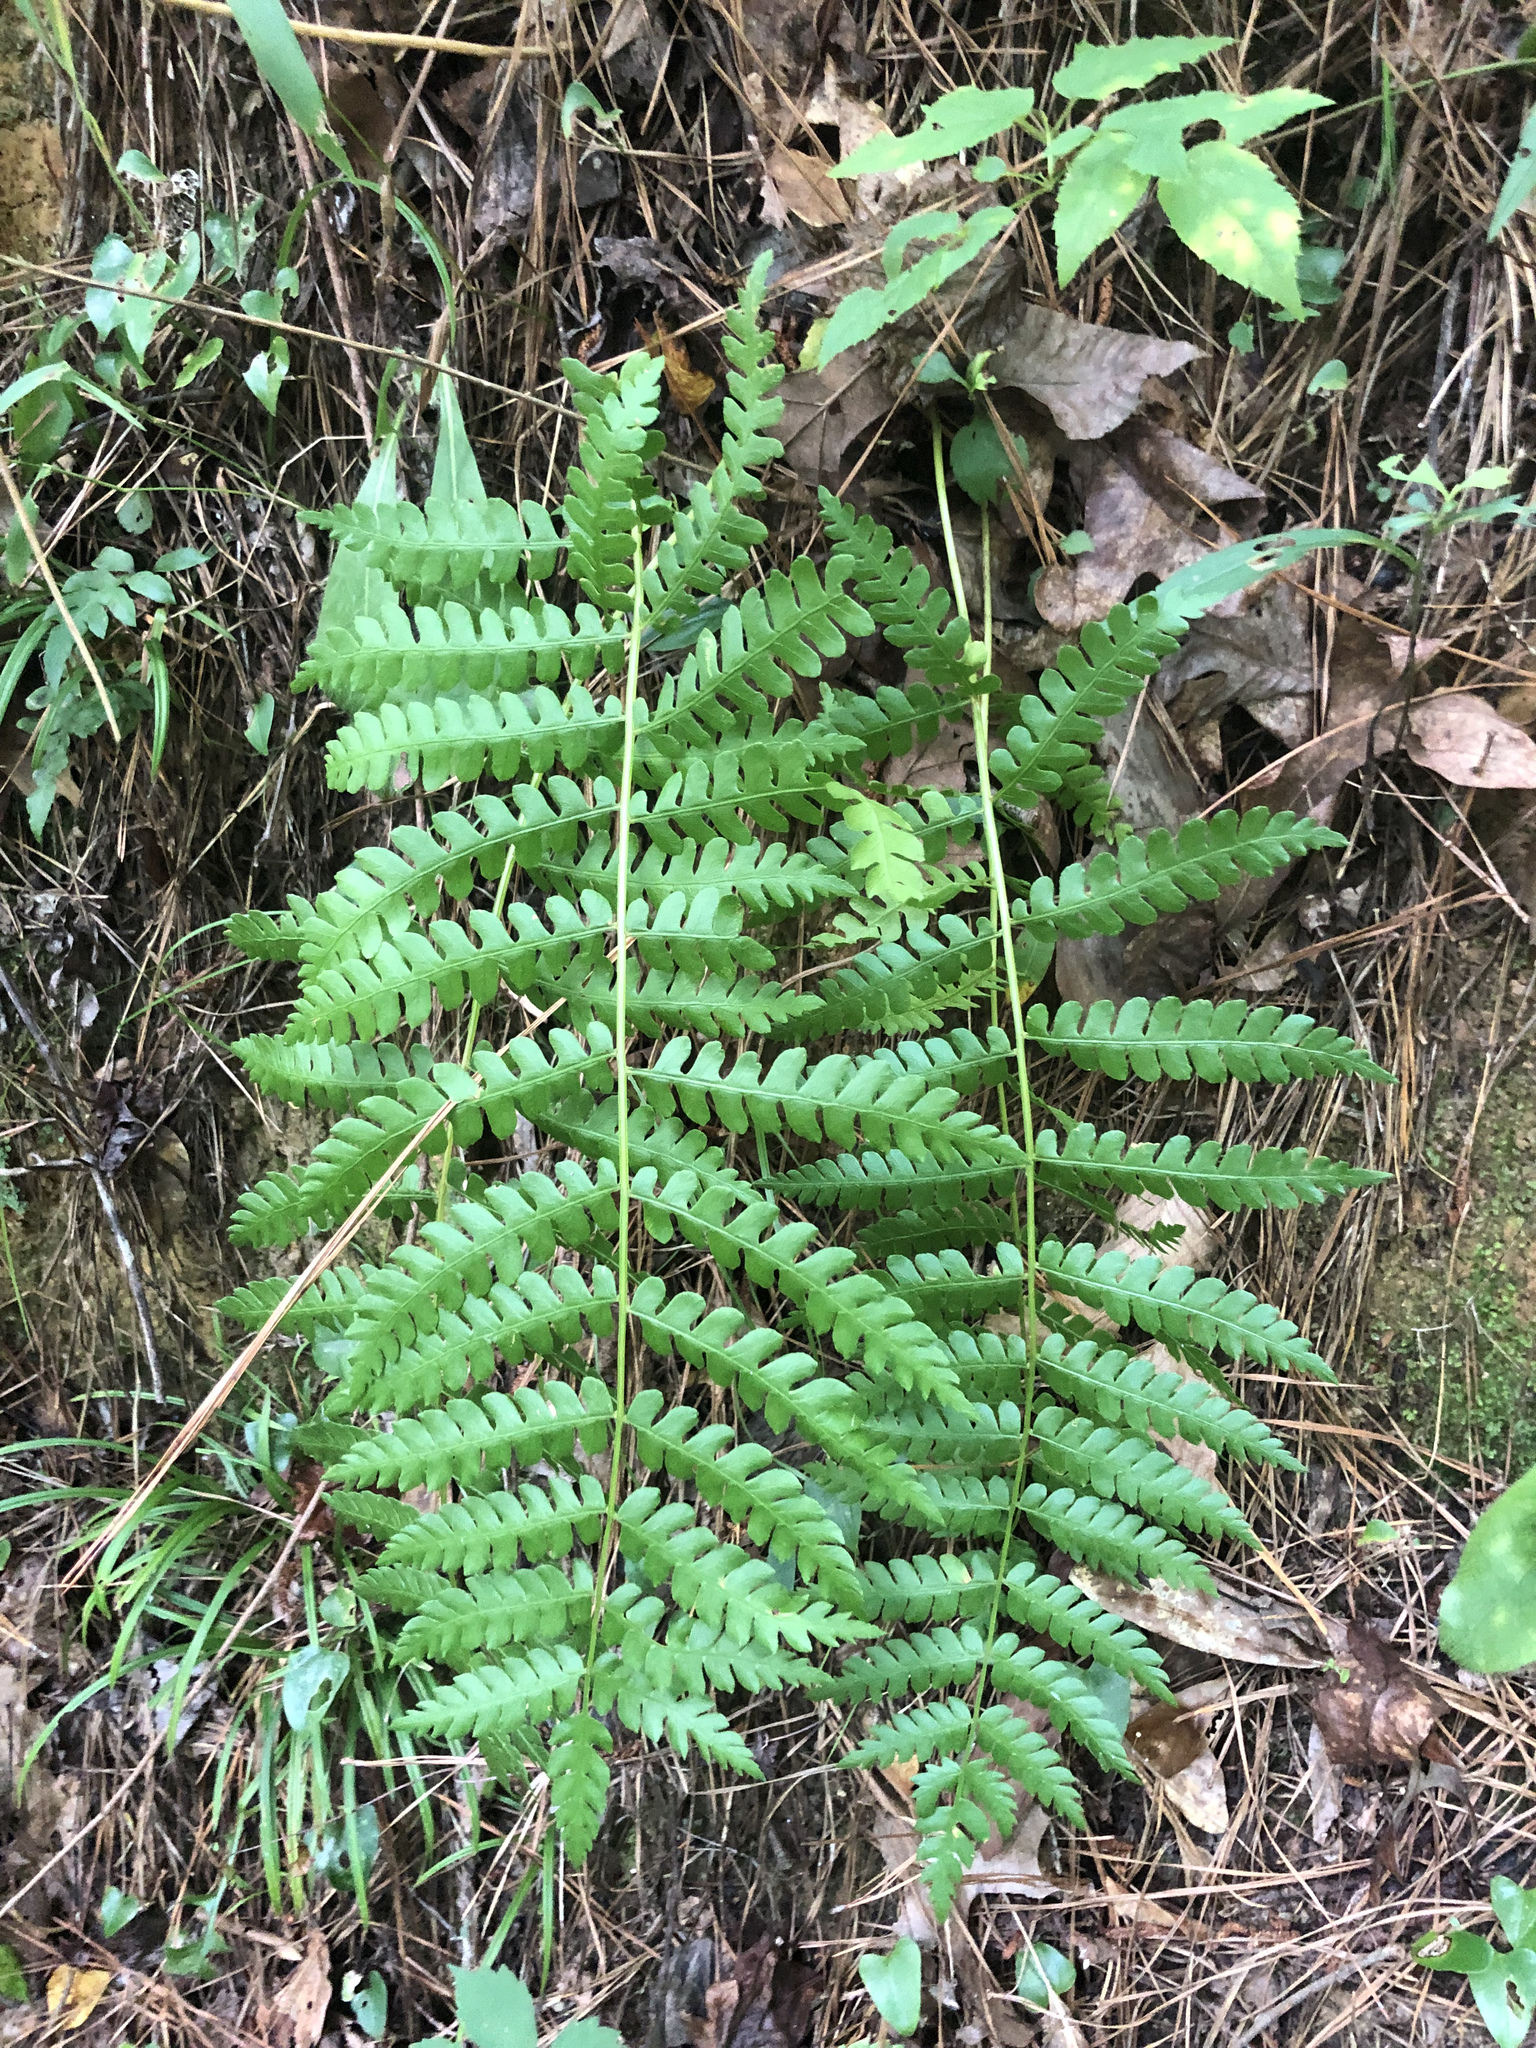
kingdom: Plantae
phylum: Tracheophyta
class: Polypodiopsida
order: Osmundales
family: Osmundaceae
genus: Osmundastrum
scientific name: Osmundastrum cinnamomeum
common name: Cinnamon fern
